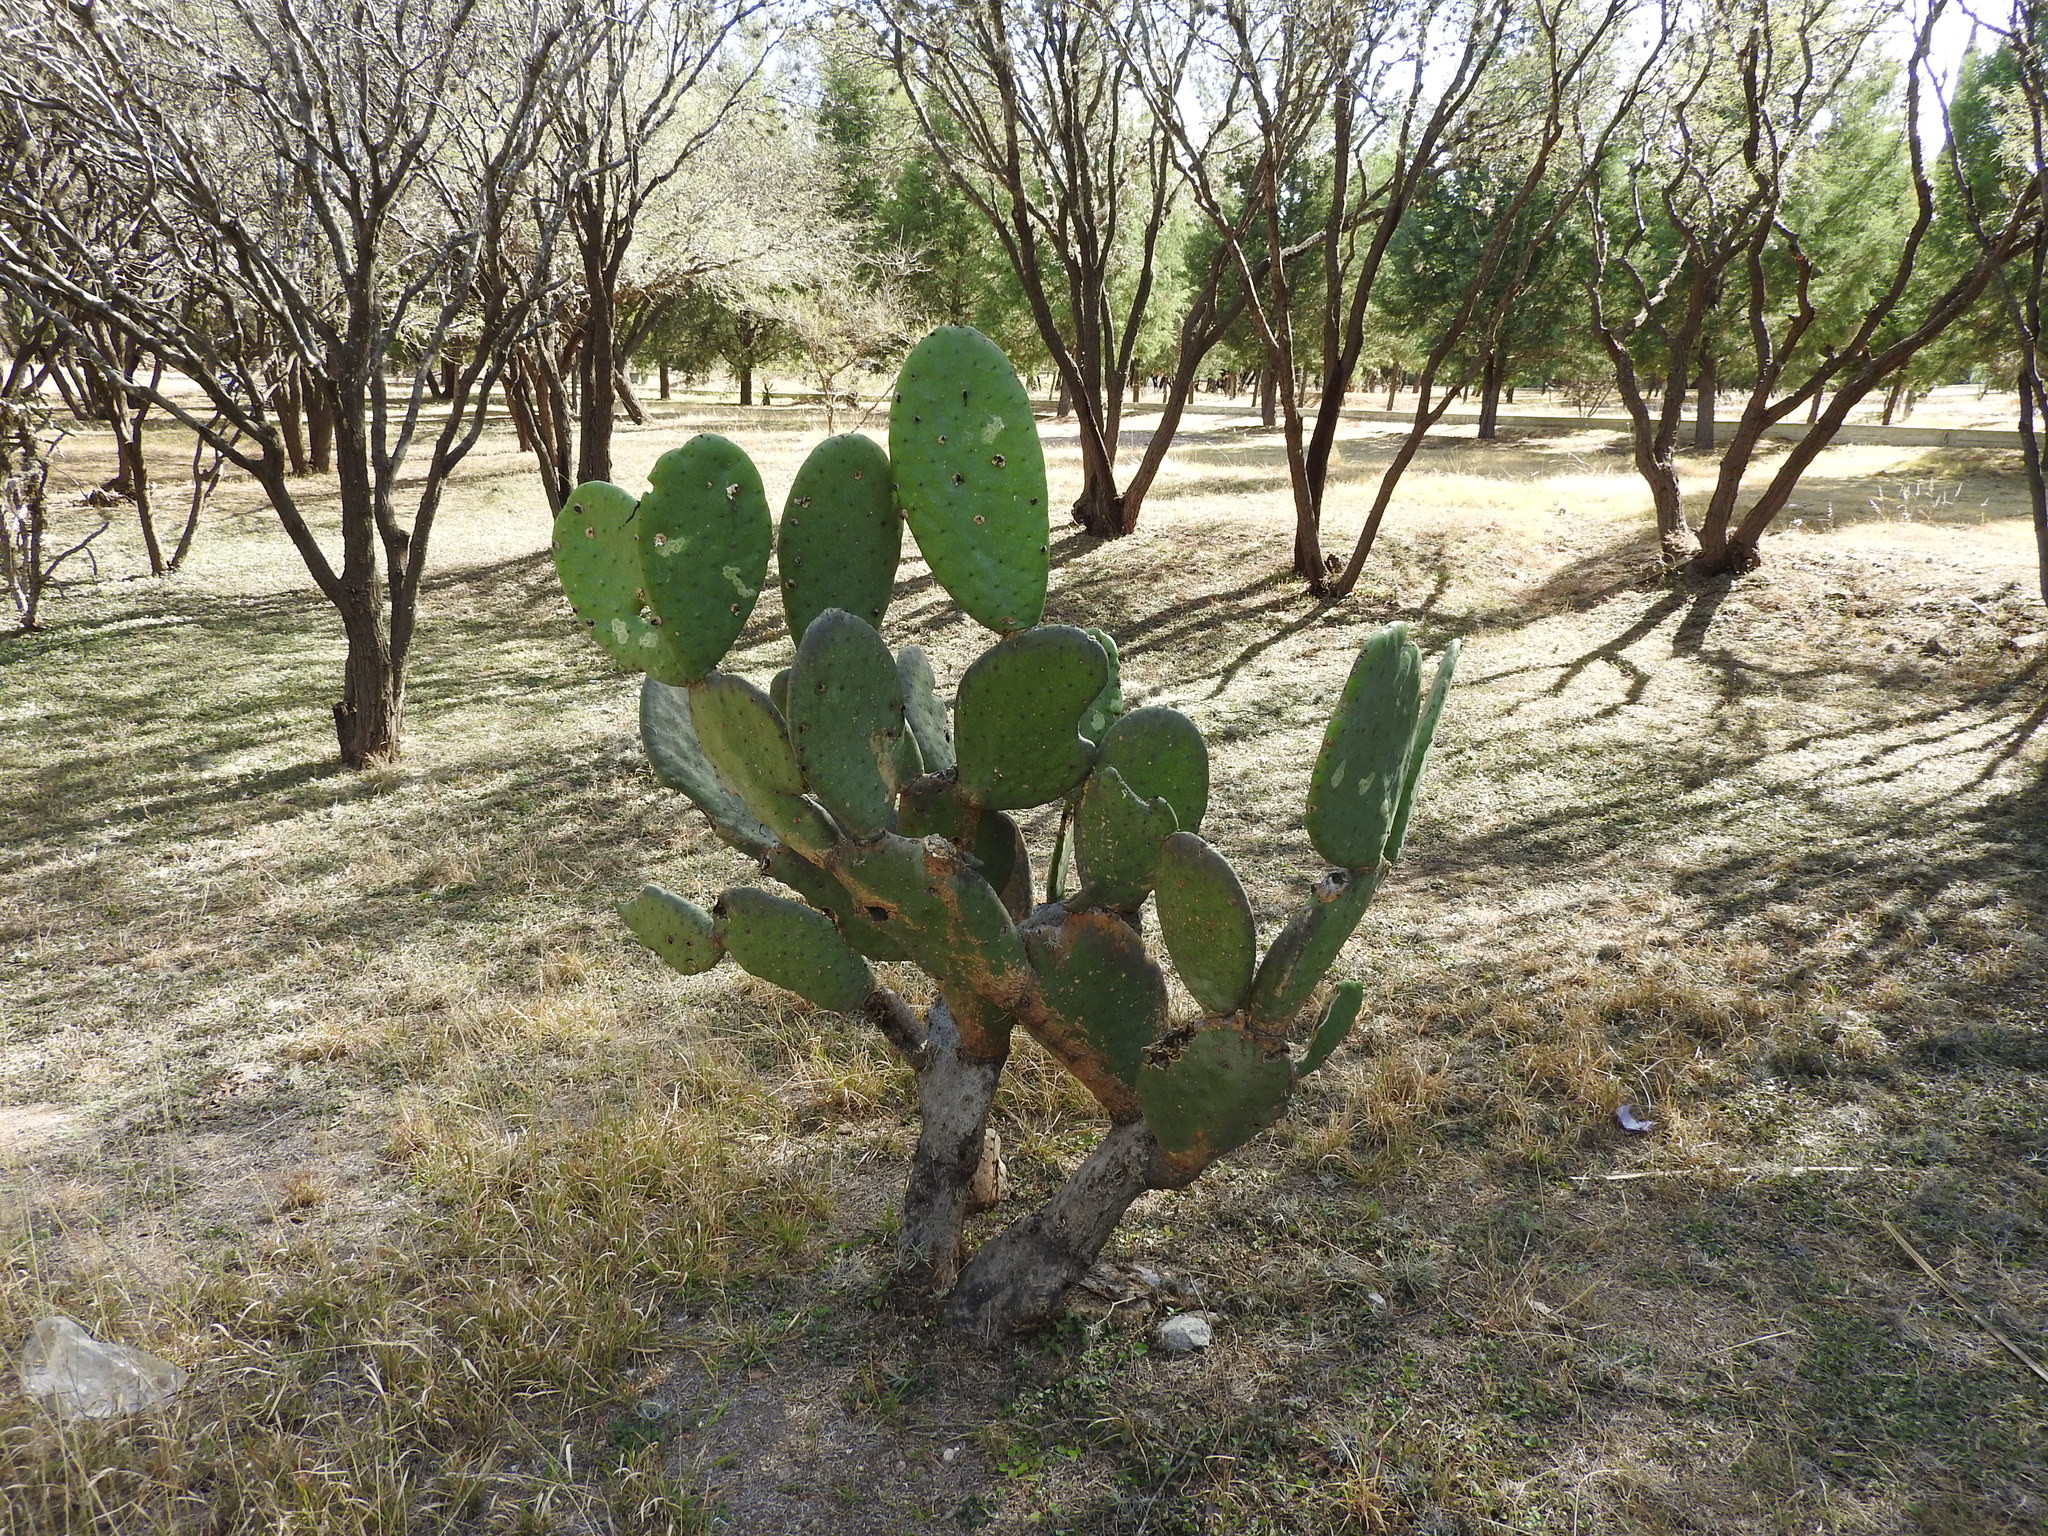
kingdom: Plantae
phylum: Tracheophyta
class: Magnoliopsida
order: Caryophyllales
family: Cactaceae
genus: Opuntia
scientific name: Opuntia ficus-indica
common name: Barbary fig
